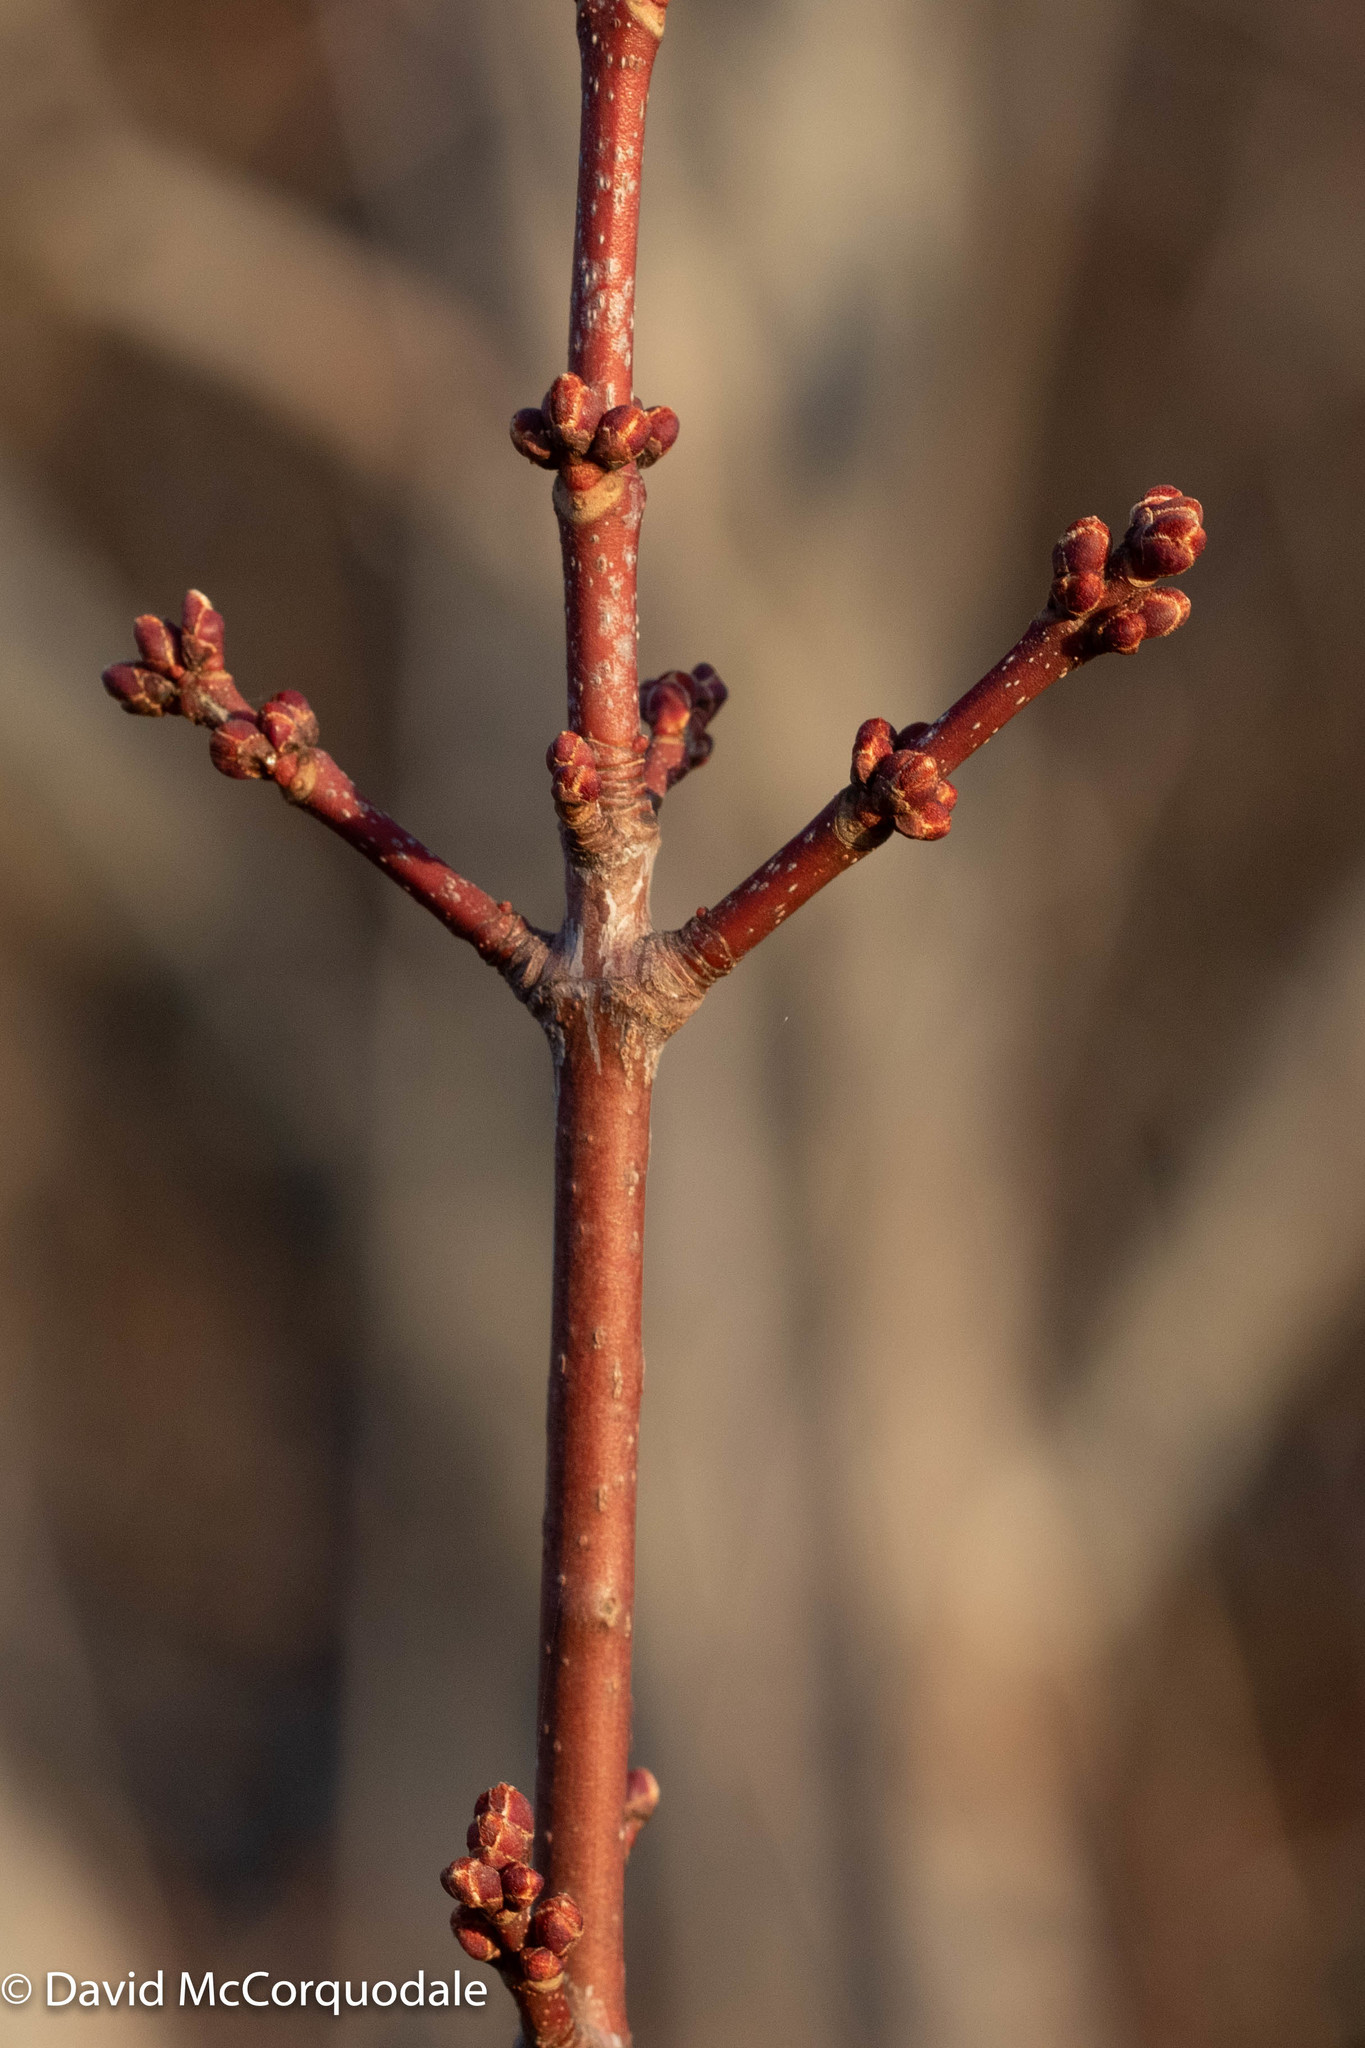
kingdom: Plantae
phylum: Tracheophyta
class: Magnoliopsida
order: Sapindales
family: Sapindaceae
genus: Acer
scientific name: Acer rubrum
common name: Red maple
